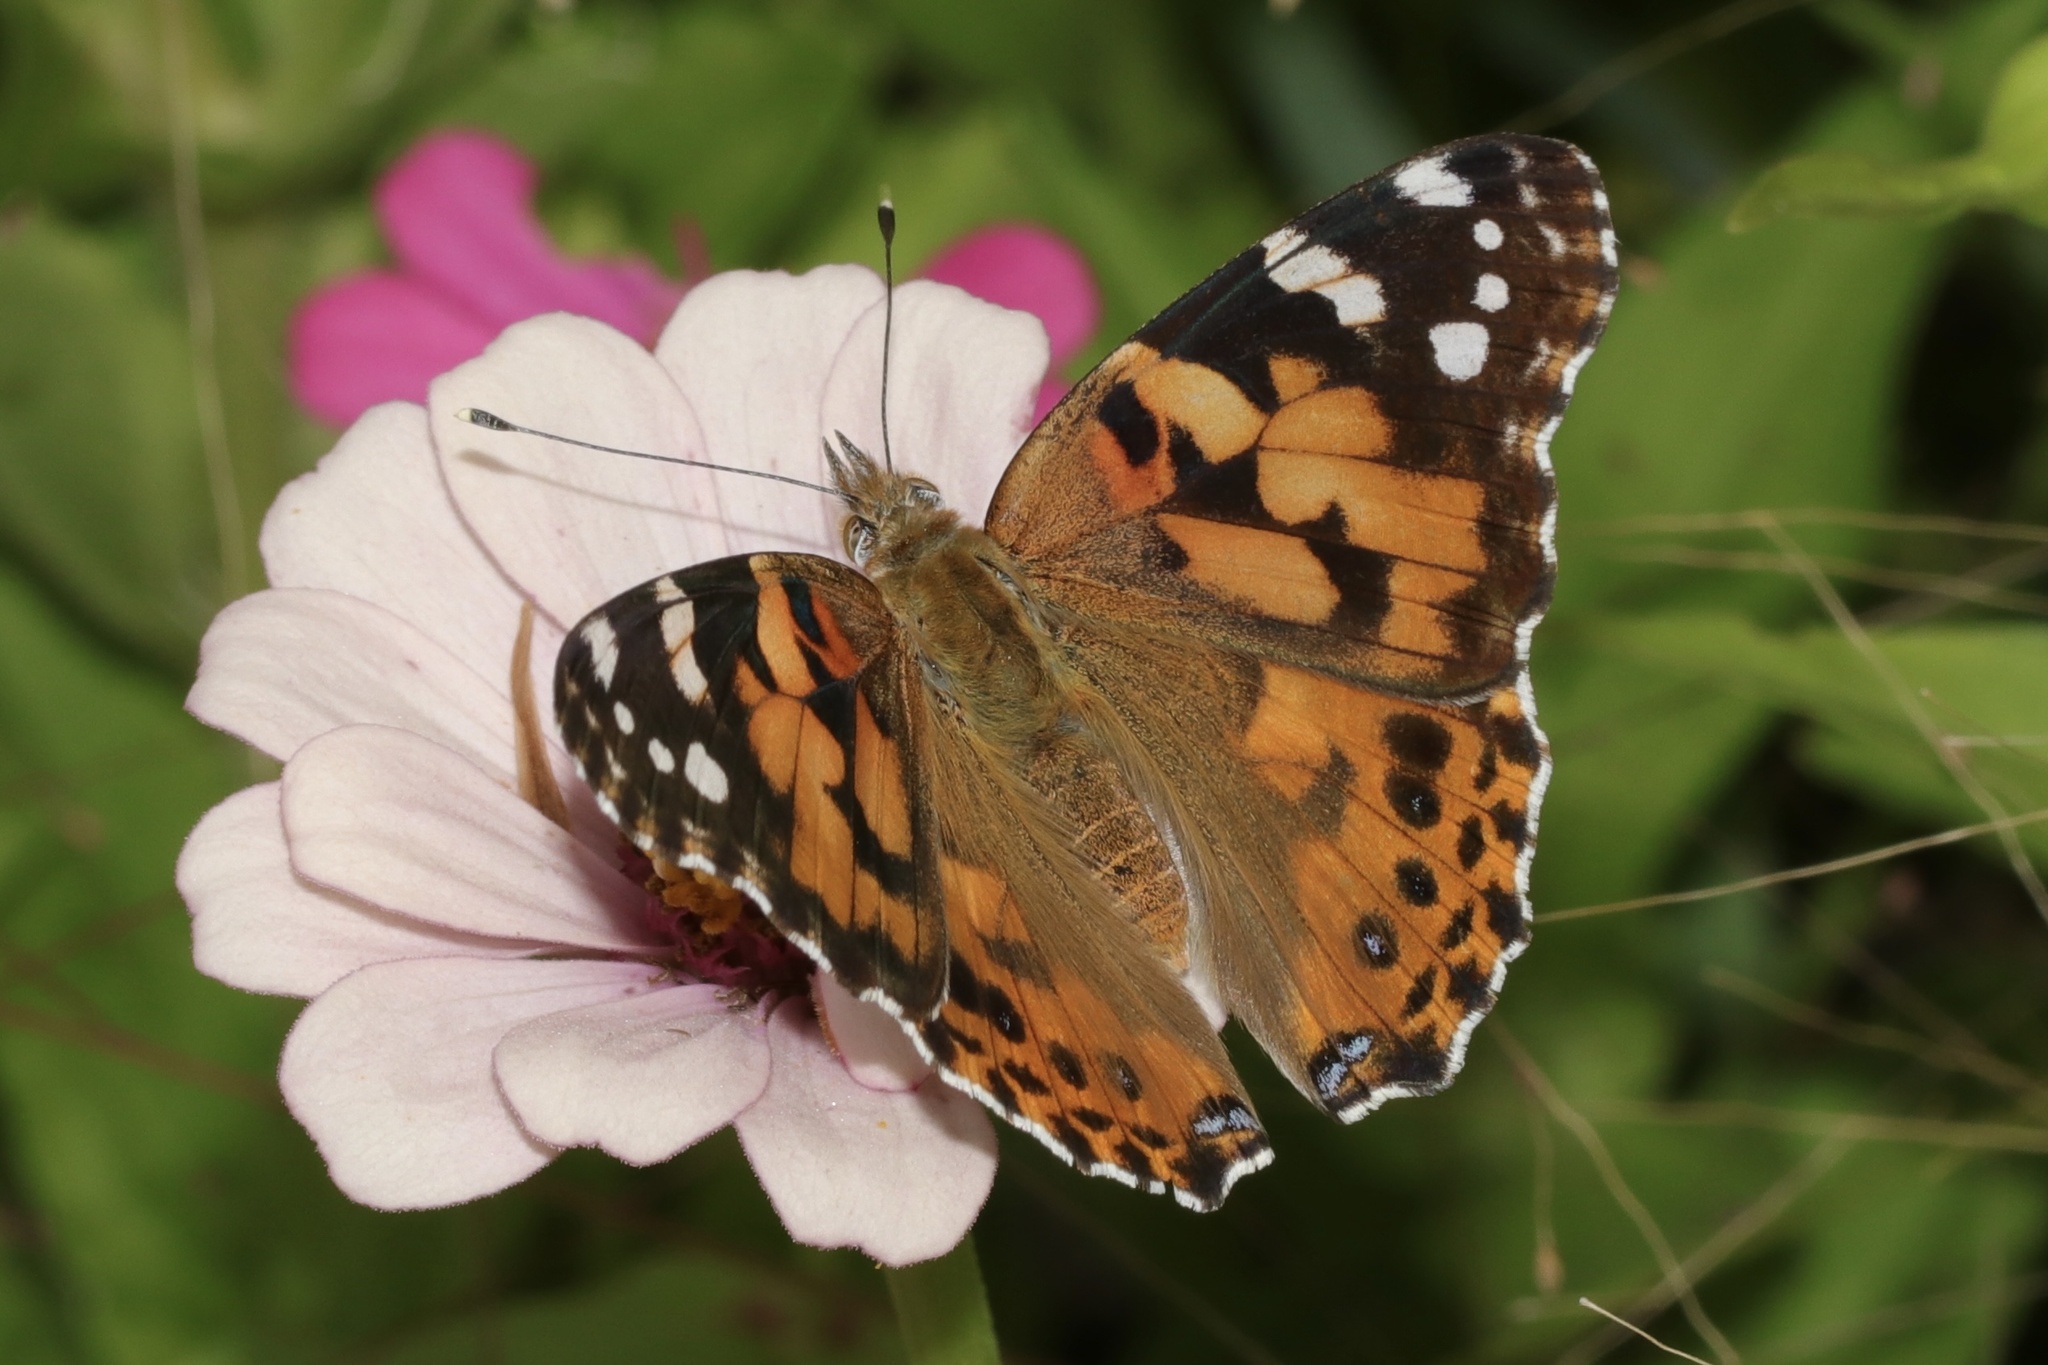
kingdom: Animalia
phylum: Arthropoda
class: Insecta
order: Lepidoptera
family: Nymphalidae
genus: Vanessa
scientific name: Vanessa cardui
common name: Painted lady
